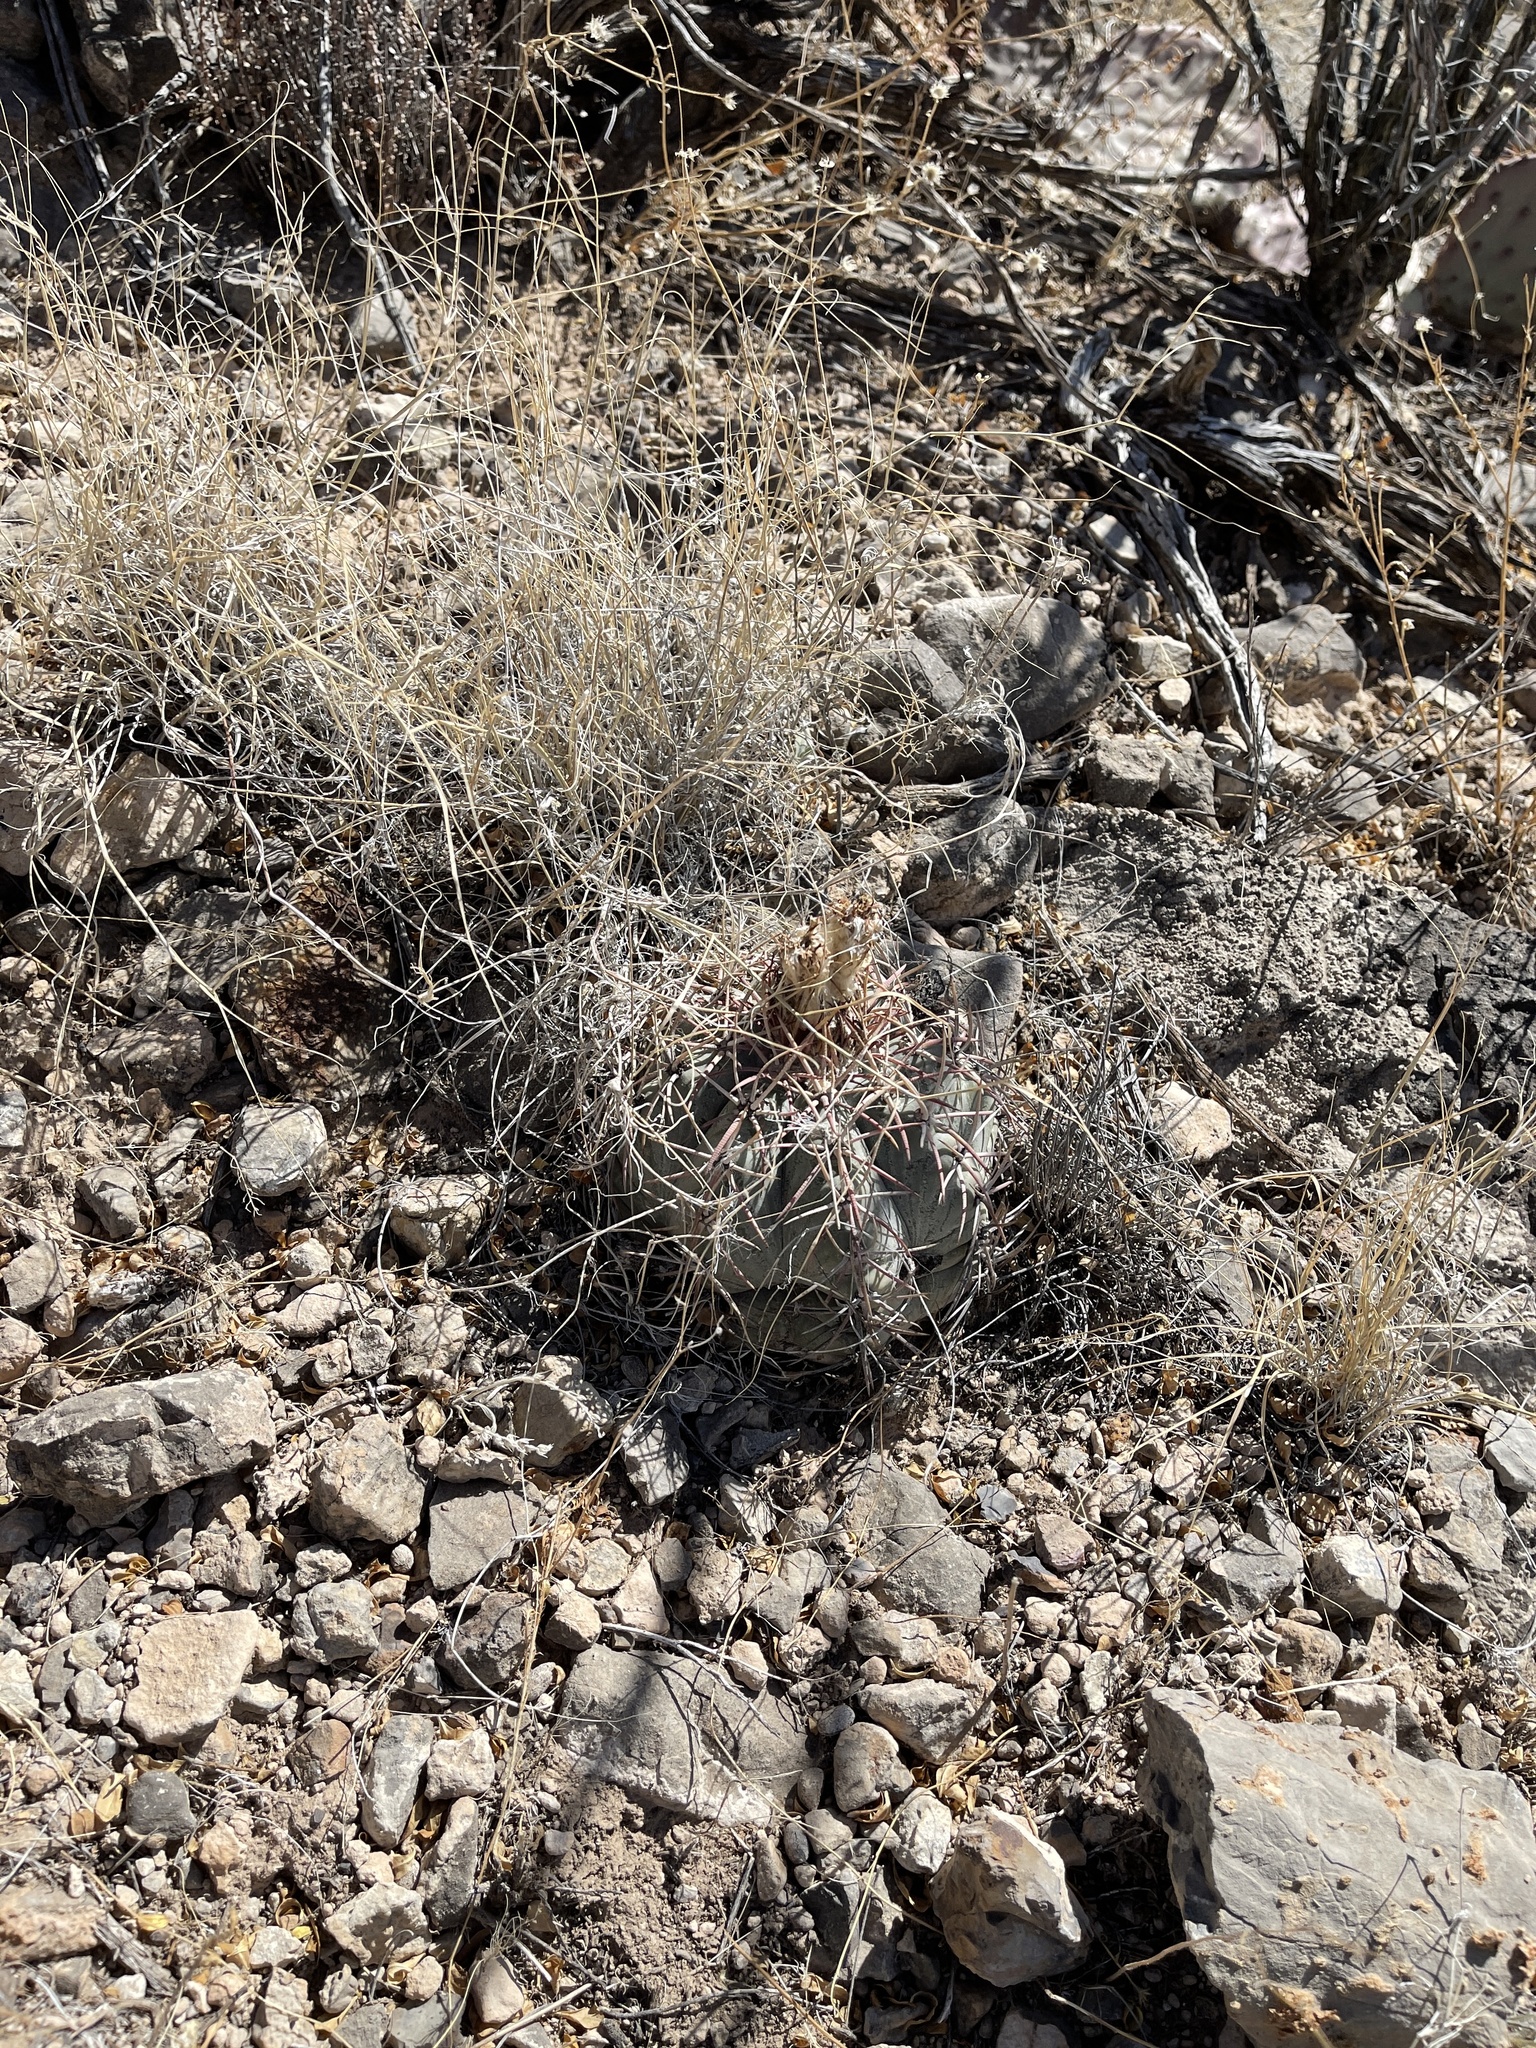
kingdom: Plantae
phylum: Tracheophyta
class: Magnoliopsida
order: Caryophyllales
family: Cactaceae
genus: Echinocactus
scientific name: Echinocactus horizonthalonius
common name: Devilshead
